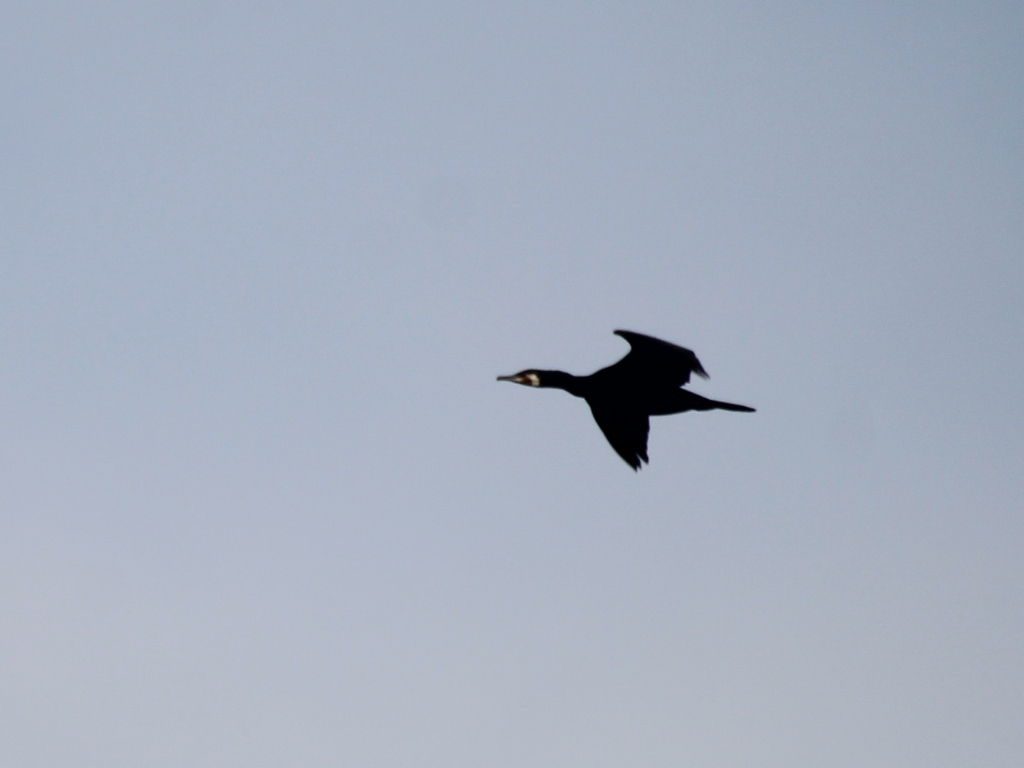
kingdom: Animalia
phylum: Chordata
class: Aves
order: Suliformes
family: Phalacrocoracidae
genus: Phalacrocorax
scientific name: Phalacrocorax carbo
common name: Great cormorant
